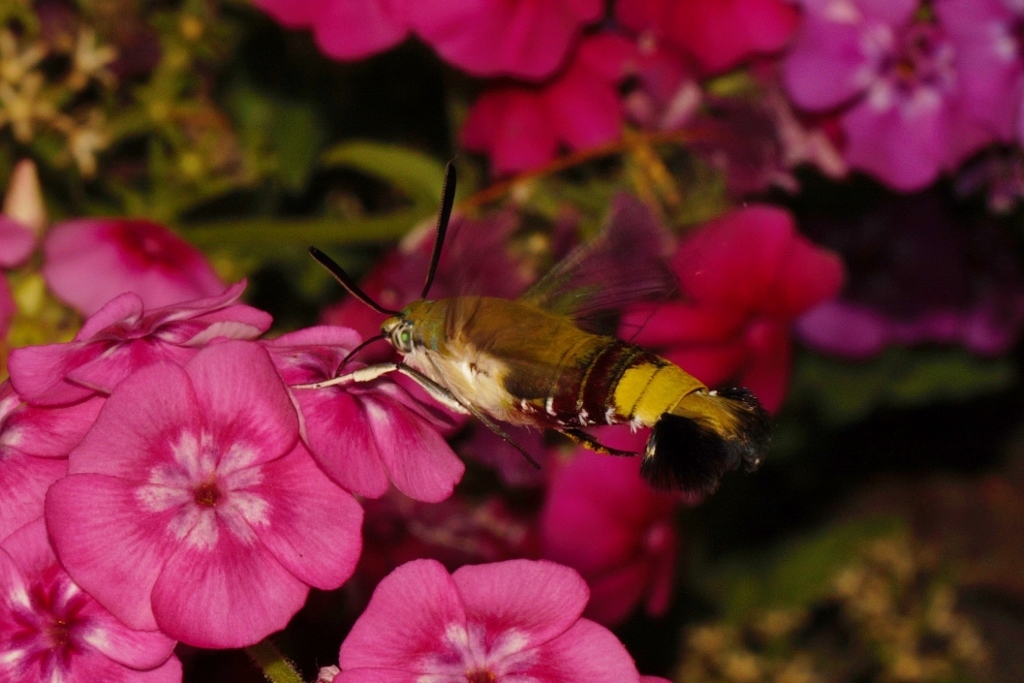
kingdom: Animalia
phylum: Arthropoda
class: Insecta
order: Lepidoptera
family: Sphingidae
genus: Cephonodes
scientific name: Cephonodes hylas
